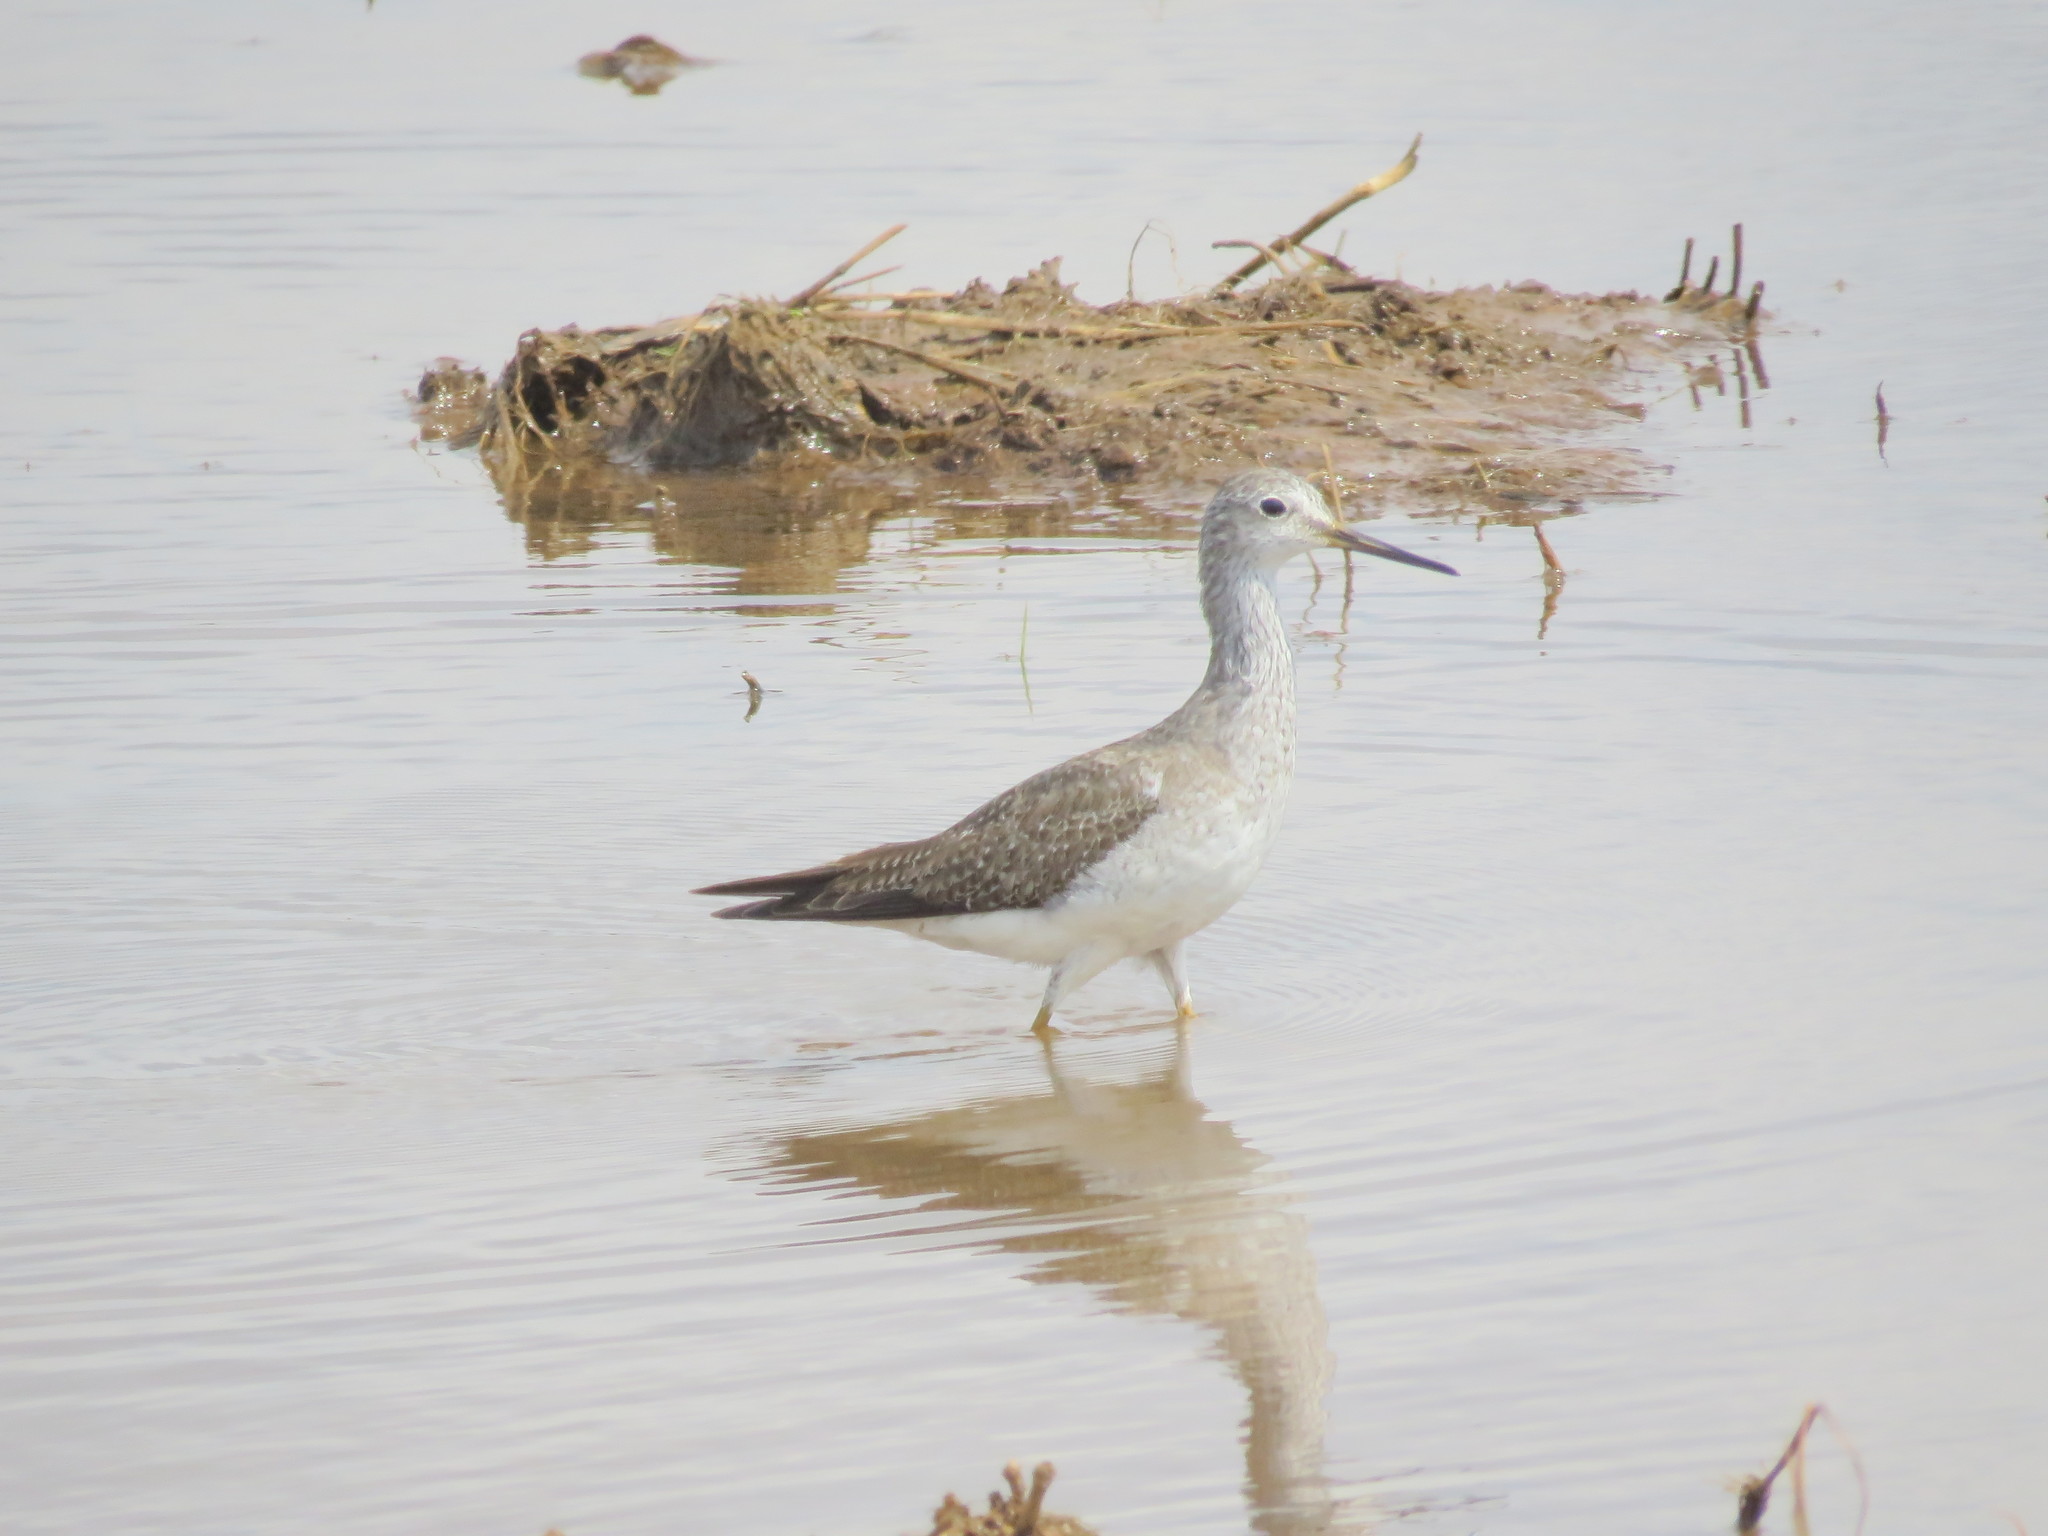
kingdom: Animalia
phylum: Chordata
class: Aves
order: Charadriiformes
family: Scolopacidae
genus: Tringa
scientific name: Tringa melanoleuca
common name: Greater yellowlegs
